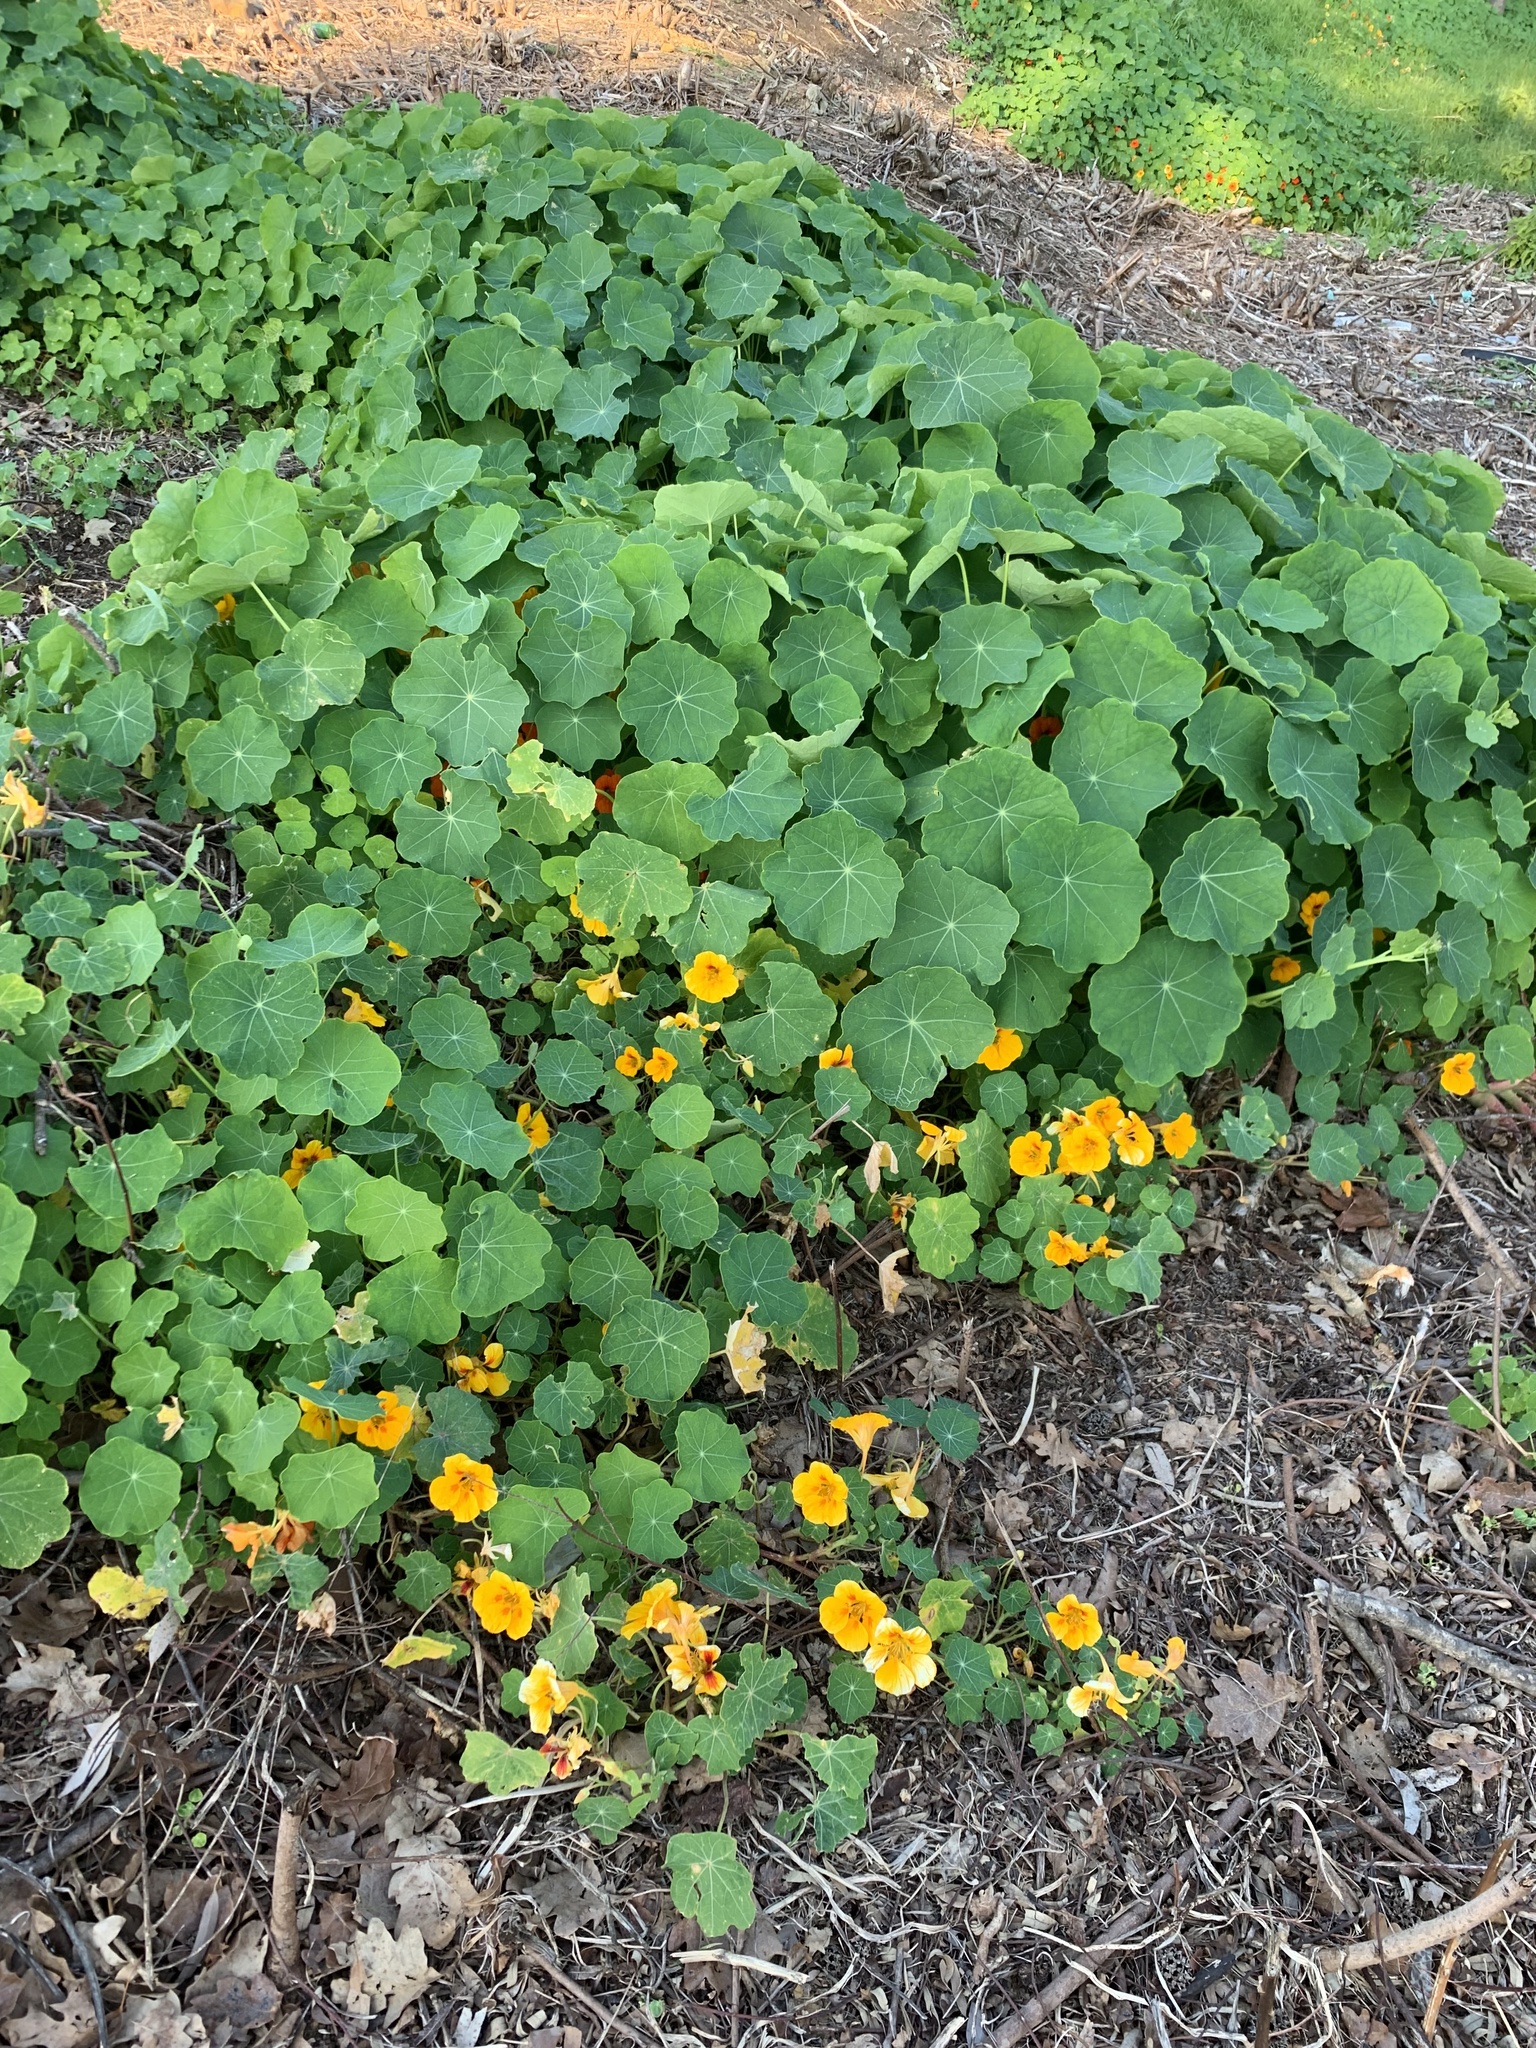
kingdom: Plantae
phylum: Tracheophyta
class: Magnoliopsida
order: Brassicales
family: Tropaeolaceae
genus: Tropaeolum
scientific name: Tropaeolum majus
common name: Nasturtium
